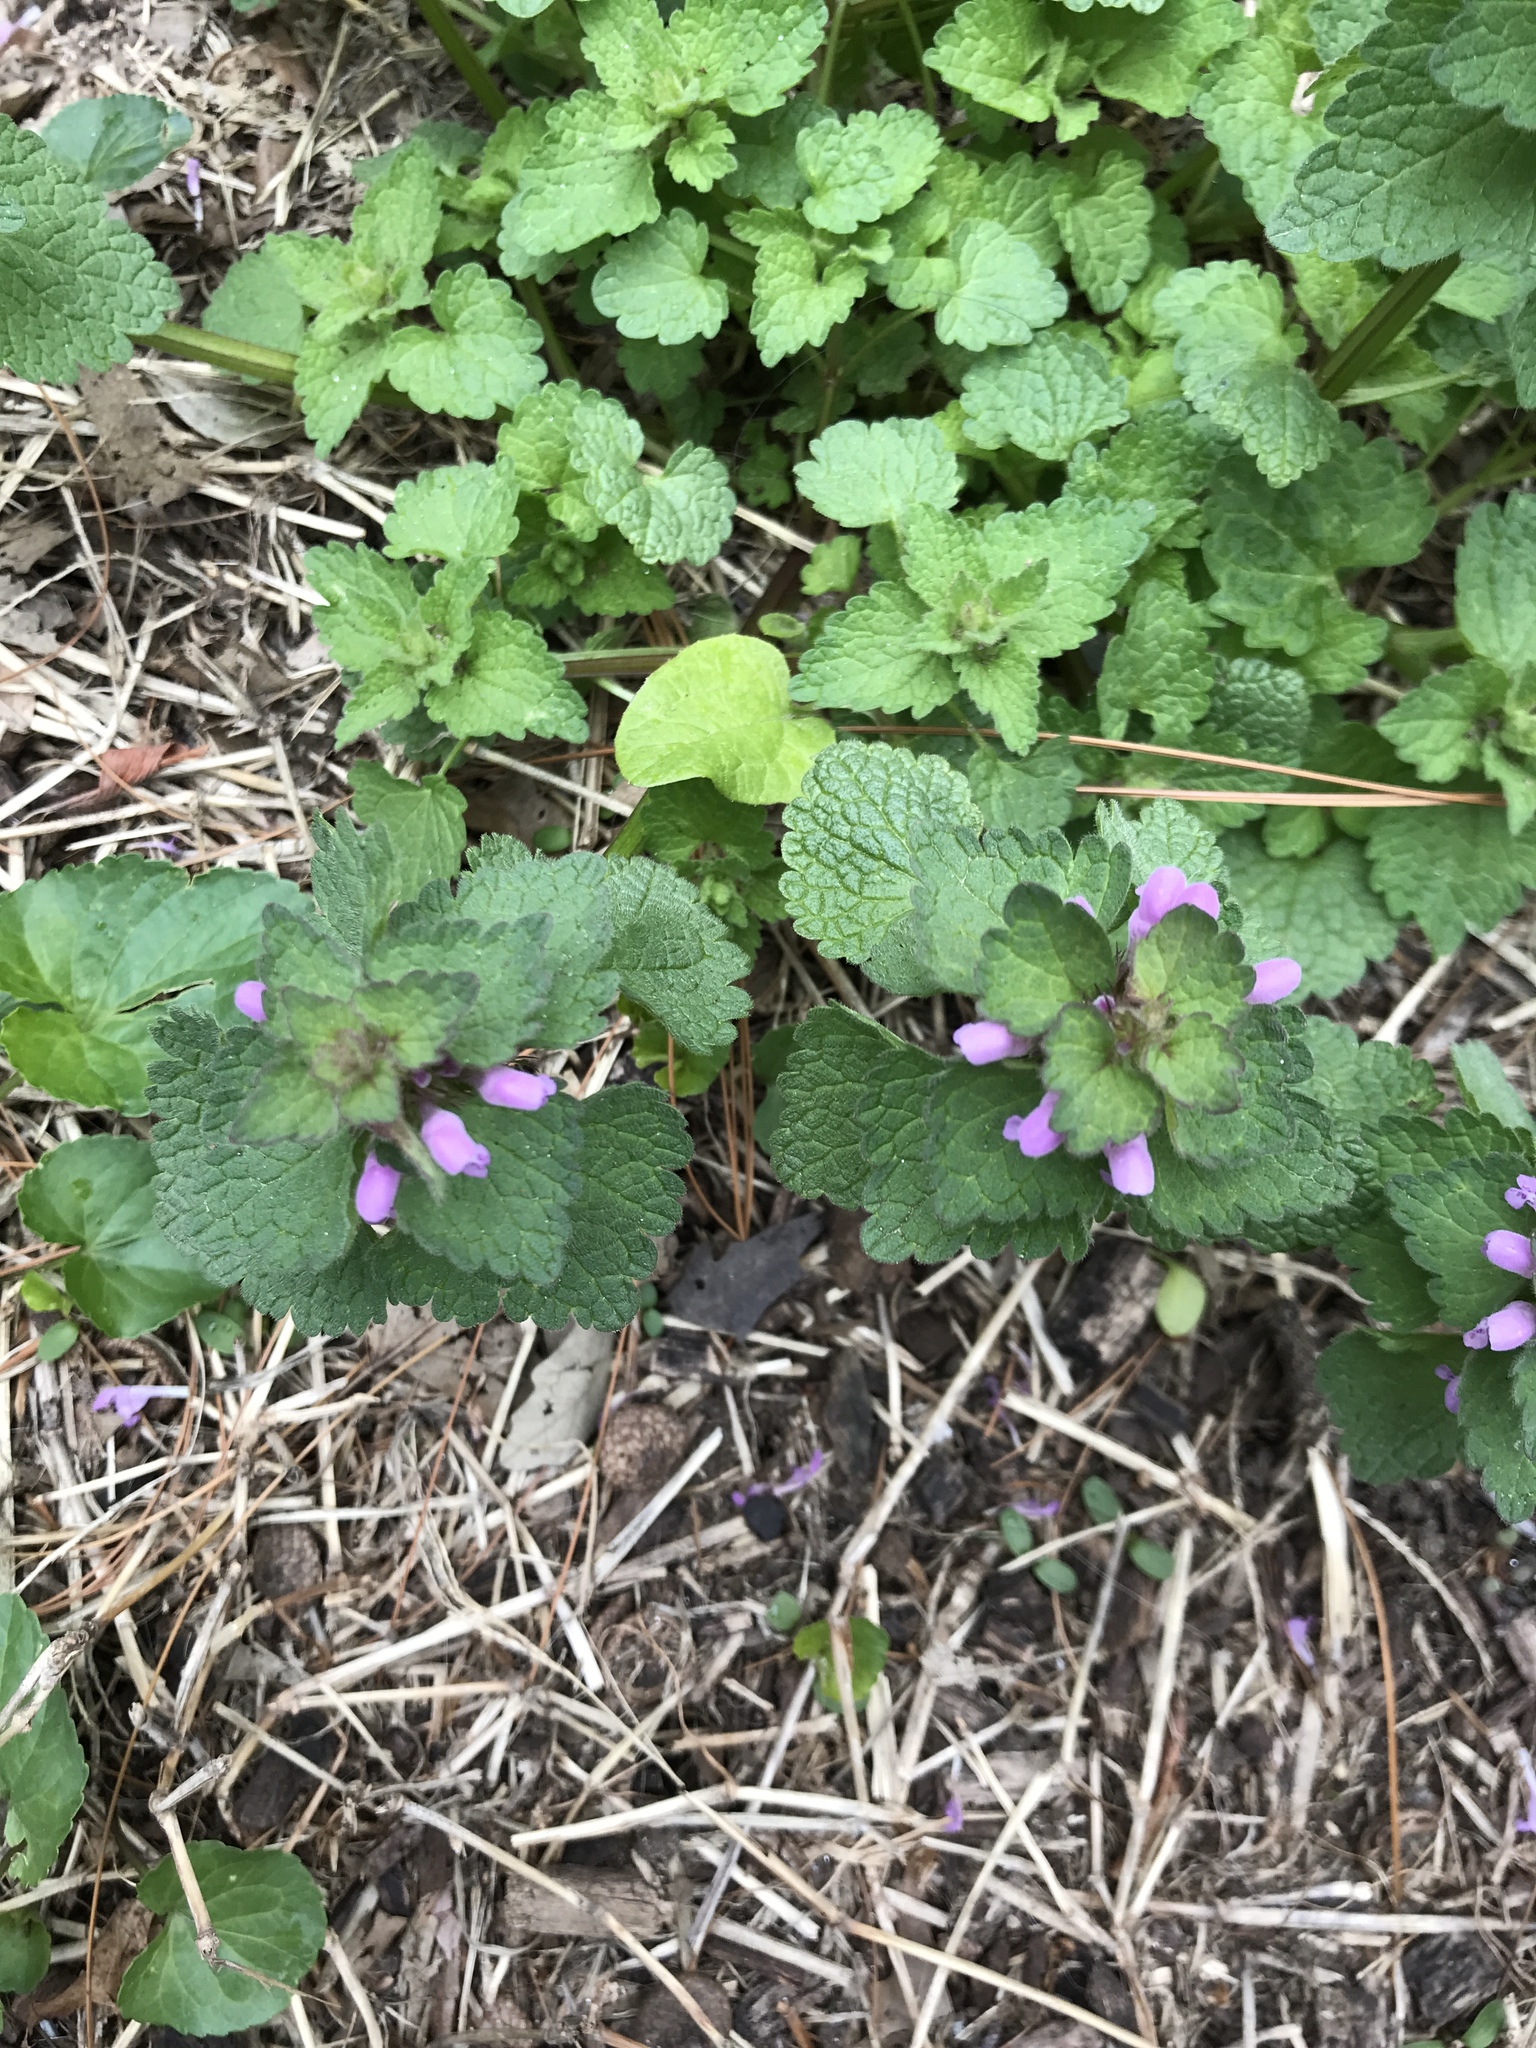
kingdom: Plantae
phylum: Tracheophyta
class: Magnoliopsida
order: Lamiales
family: Lamiaceae
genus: Lamium
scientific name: Lamium purpureum
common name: Red dead-nettle
